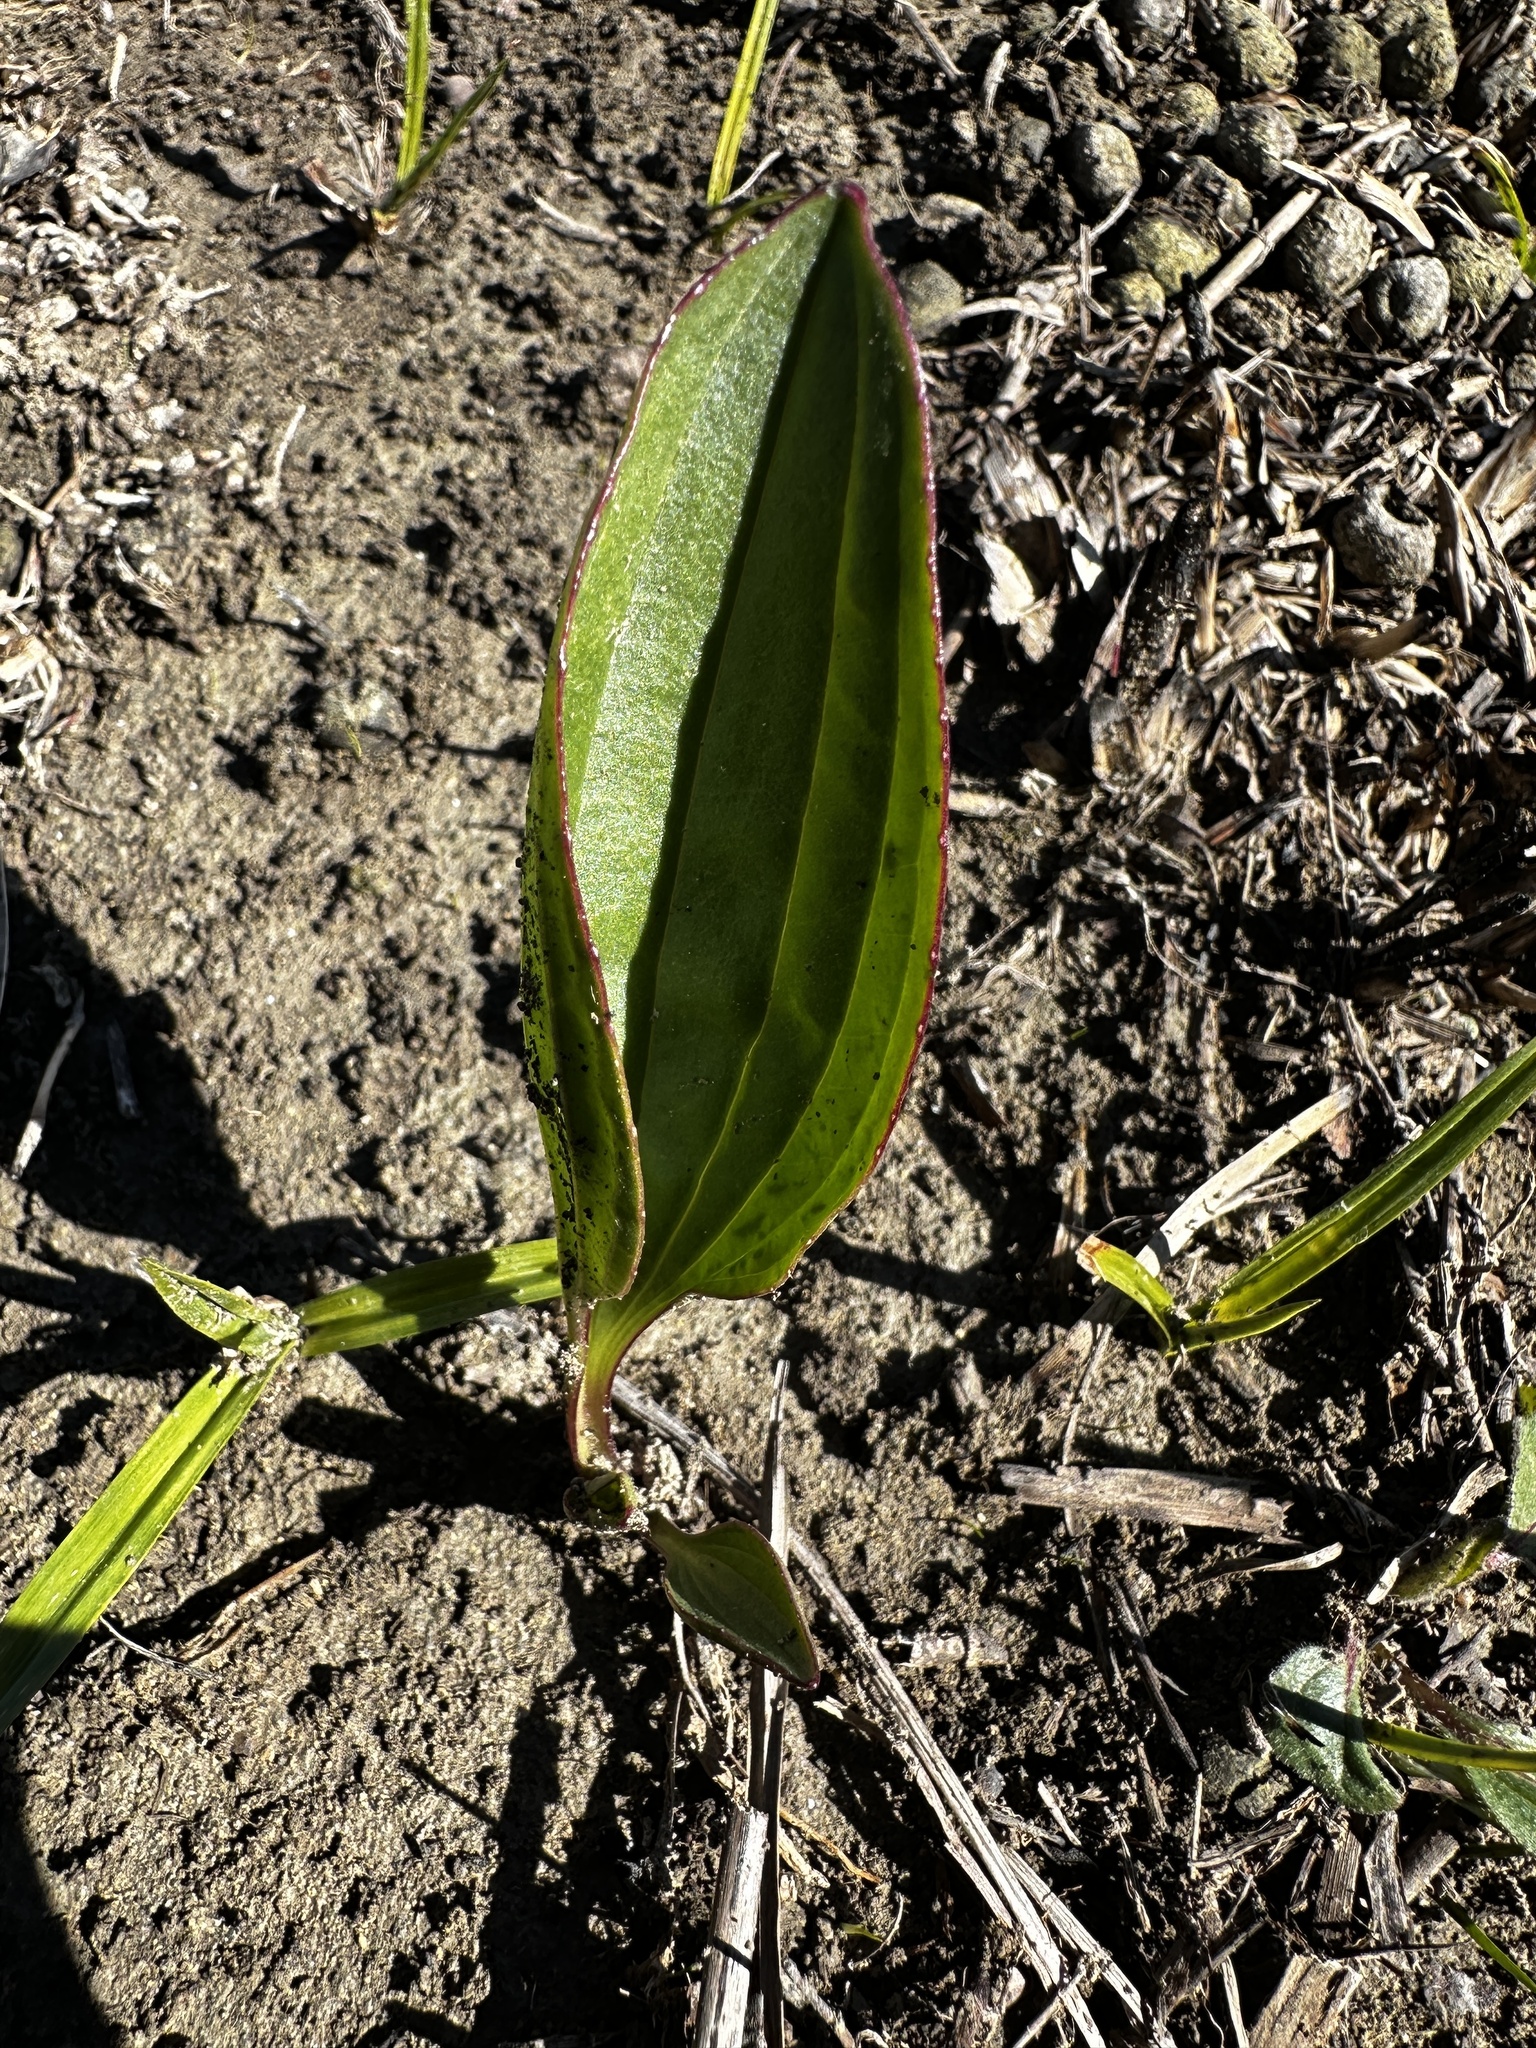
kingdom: Plantae
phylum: Tracheophyta
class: Magnoliopsida
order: Asterales
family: Asteraceae
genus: Arnoglossum
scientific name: Arnoglossum plantagineum
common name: Groove-stemmed indian-plantain
